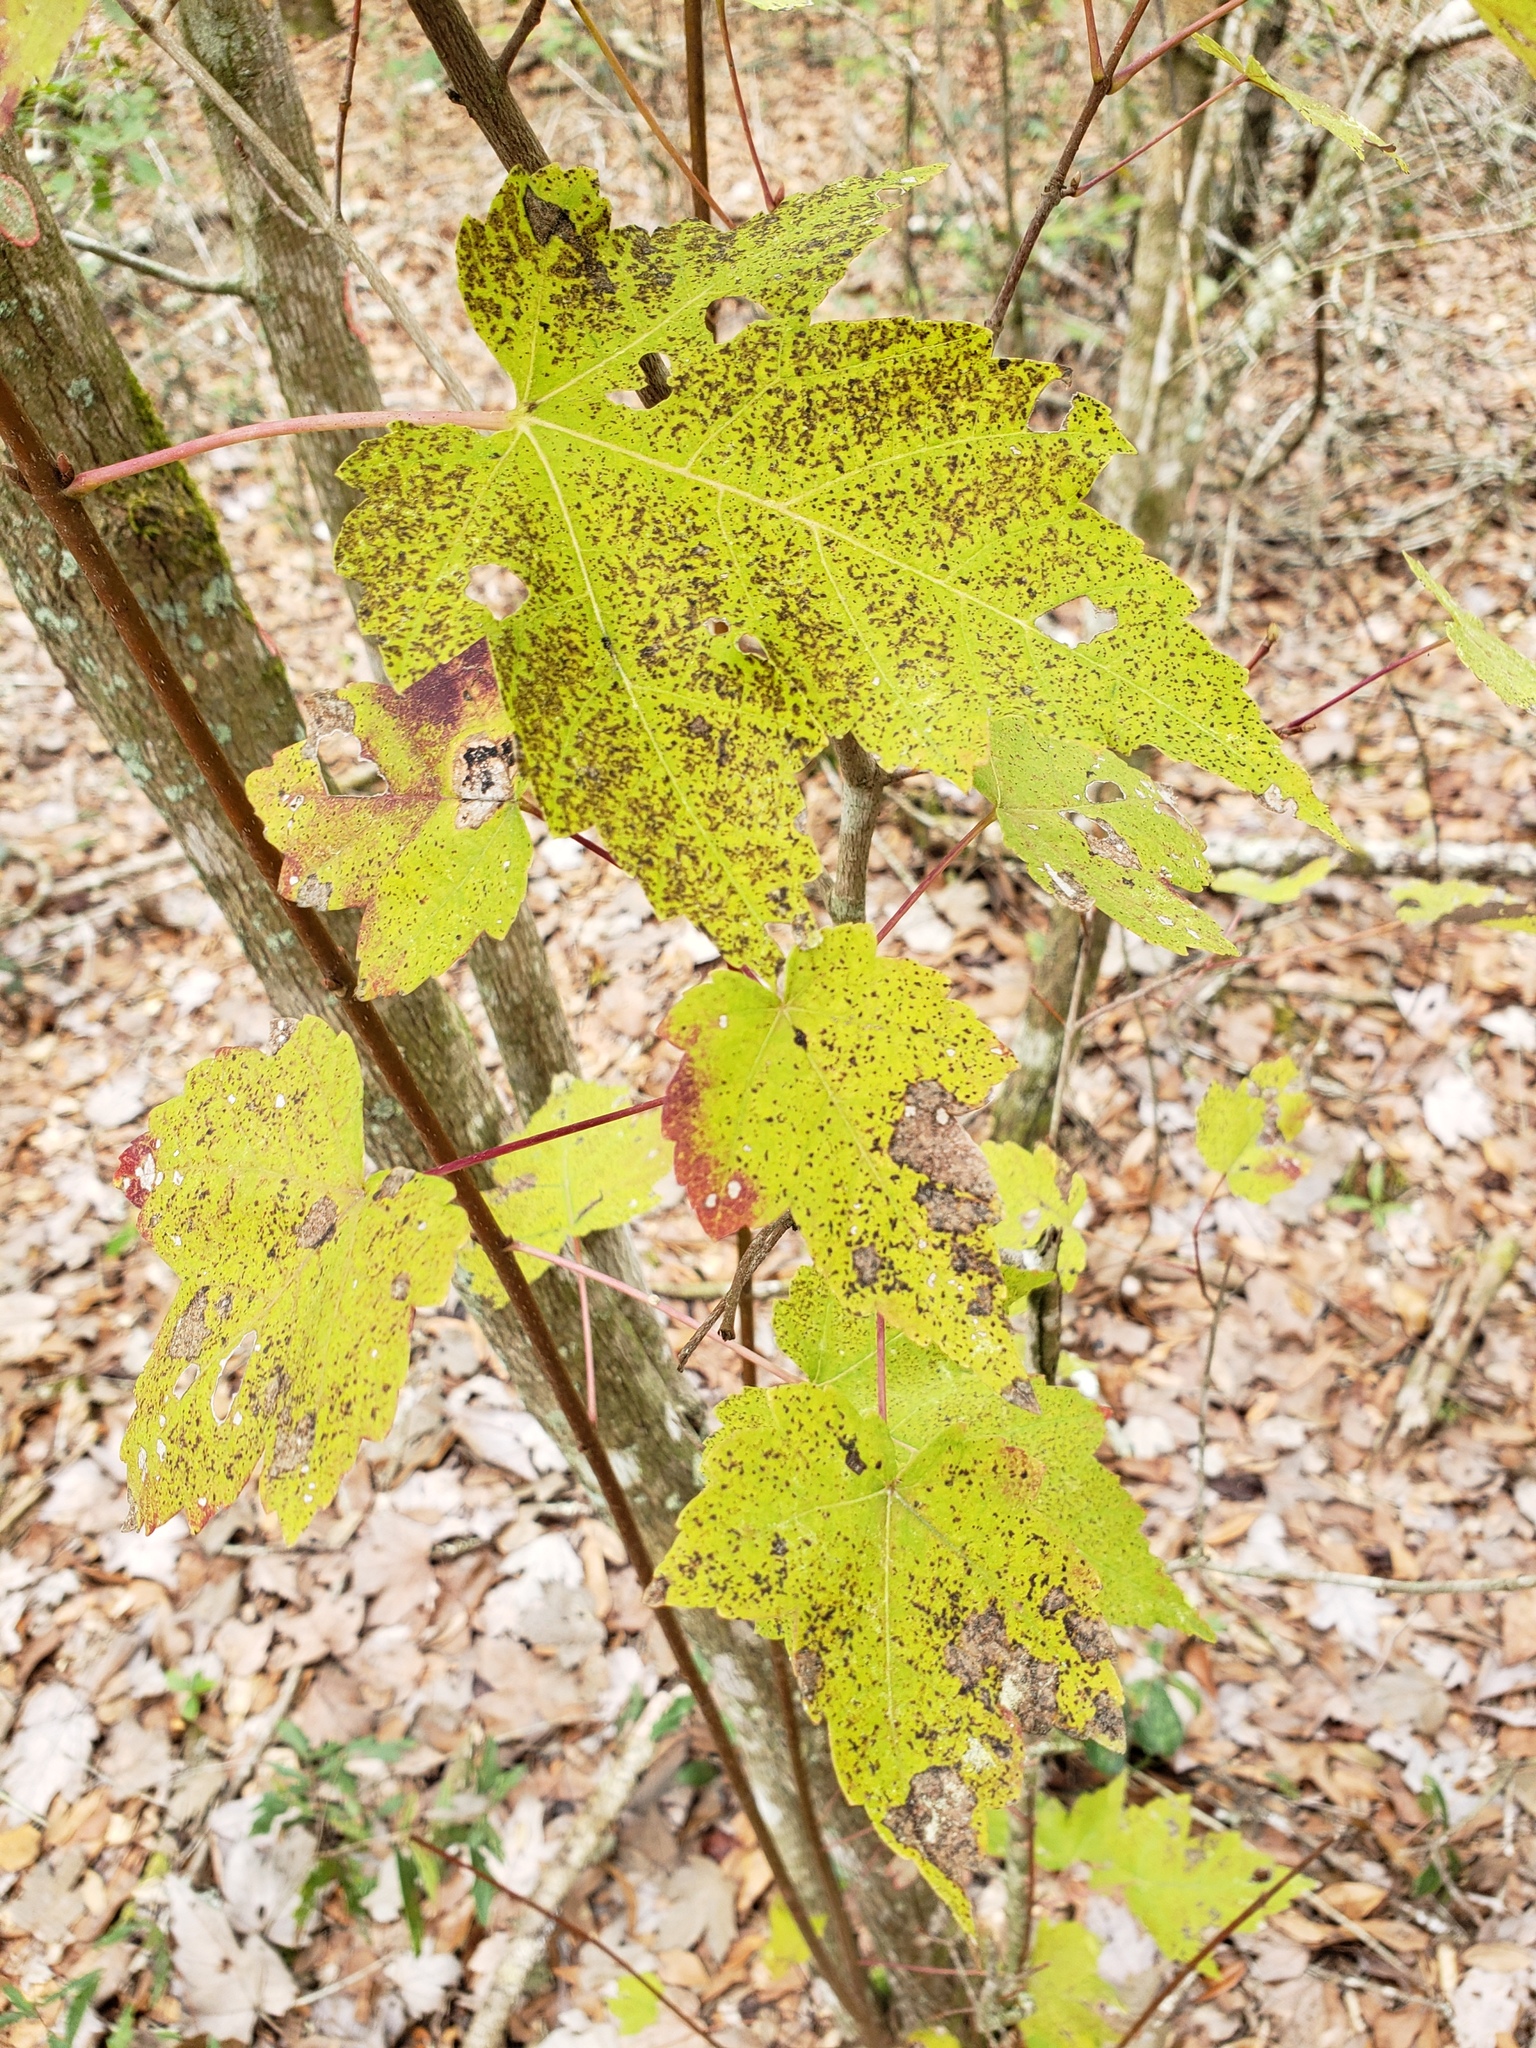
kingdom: Plantae
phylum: Tracheophyta
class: Magnoliopsida
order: Sapindales
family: Sapindaceae
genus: Acer
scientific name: Acer rubrum
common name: Red maple
